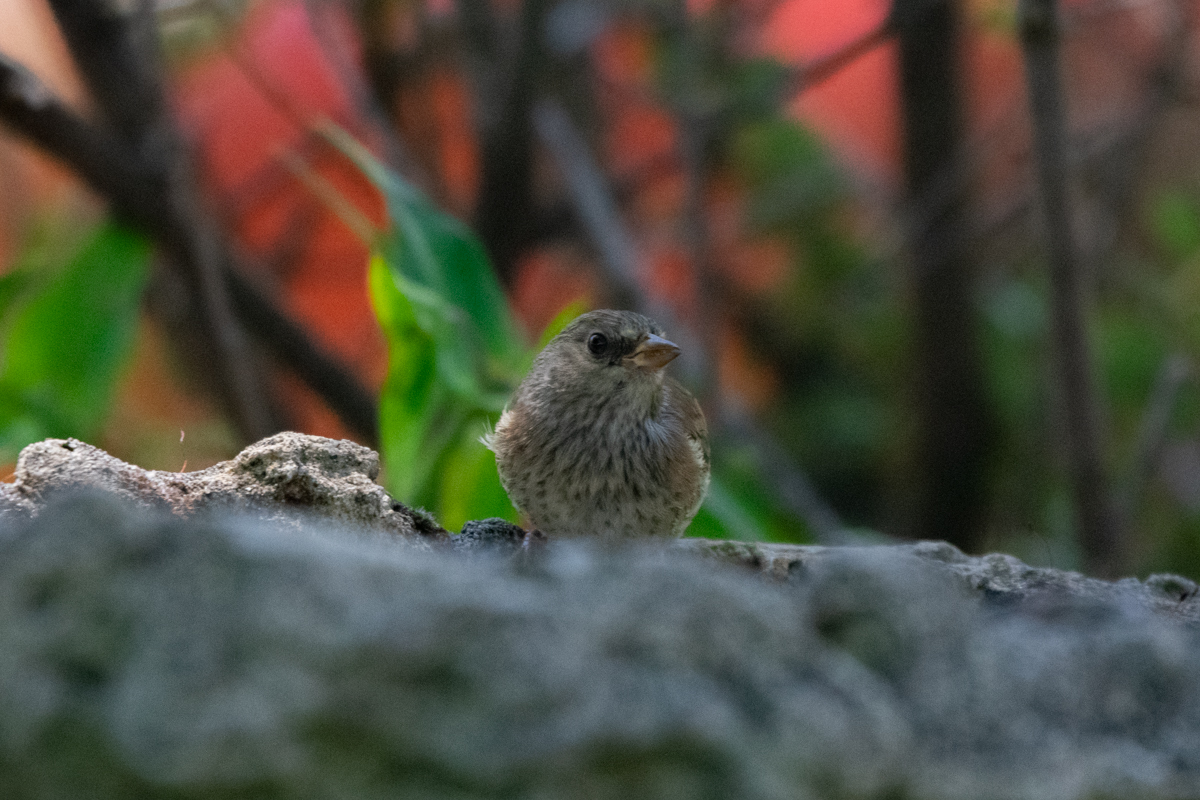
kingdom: Animalia
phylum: Chordata
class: Aves
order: Passeriformes
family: Passerellidae
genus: Junco
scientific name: Junco hyemalis
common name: Dark-eyed junco
